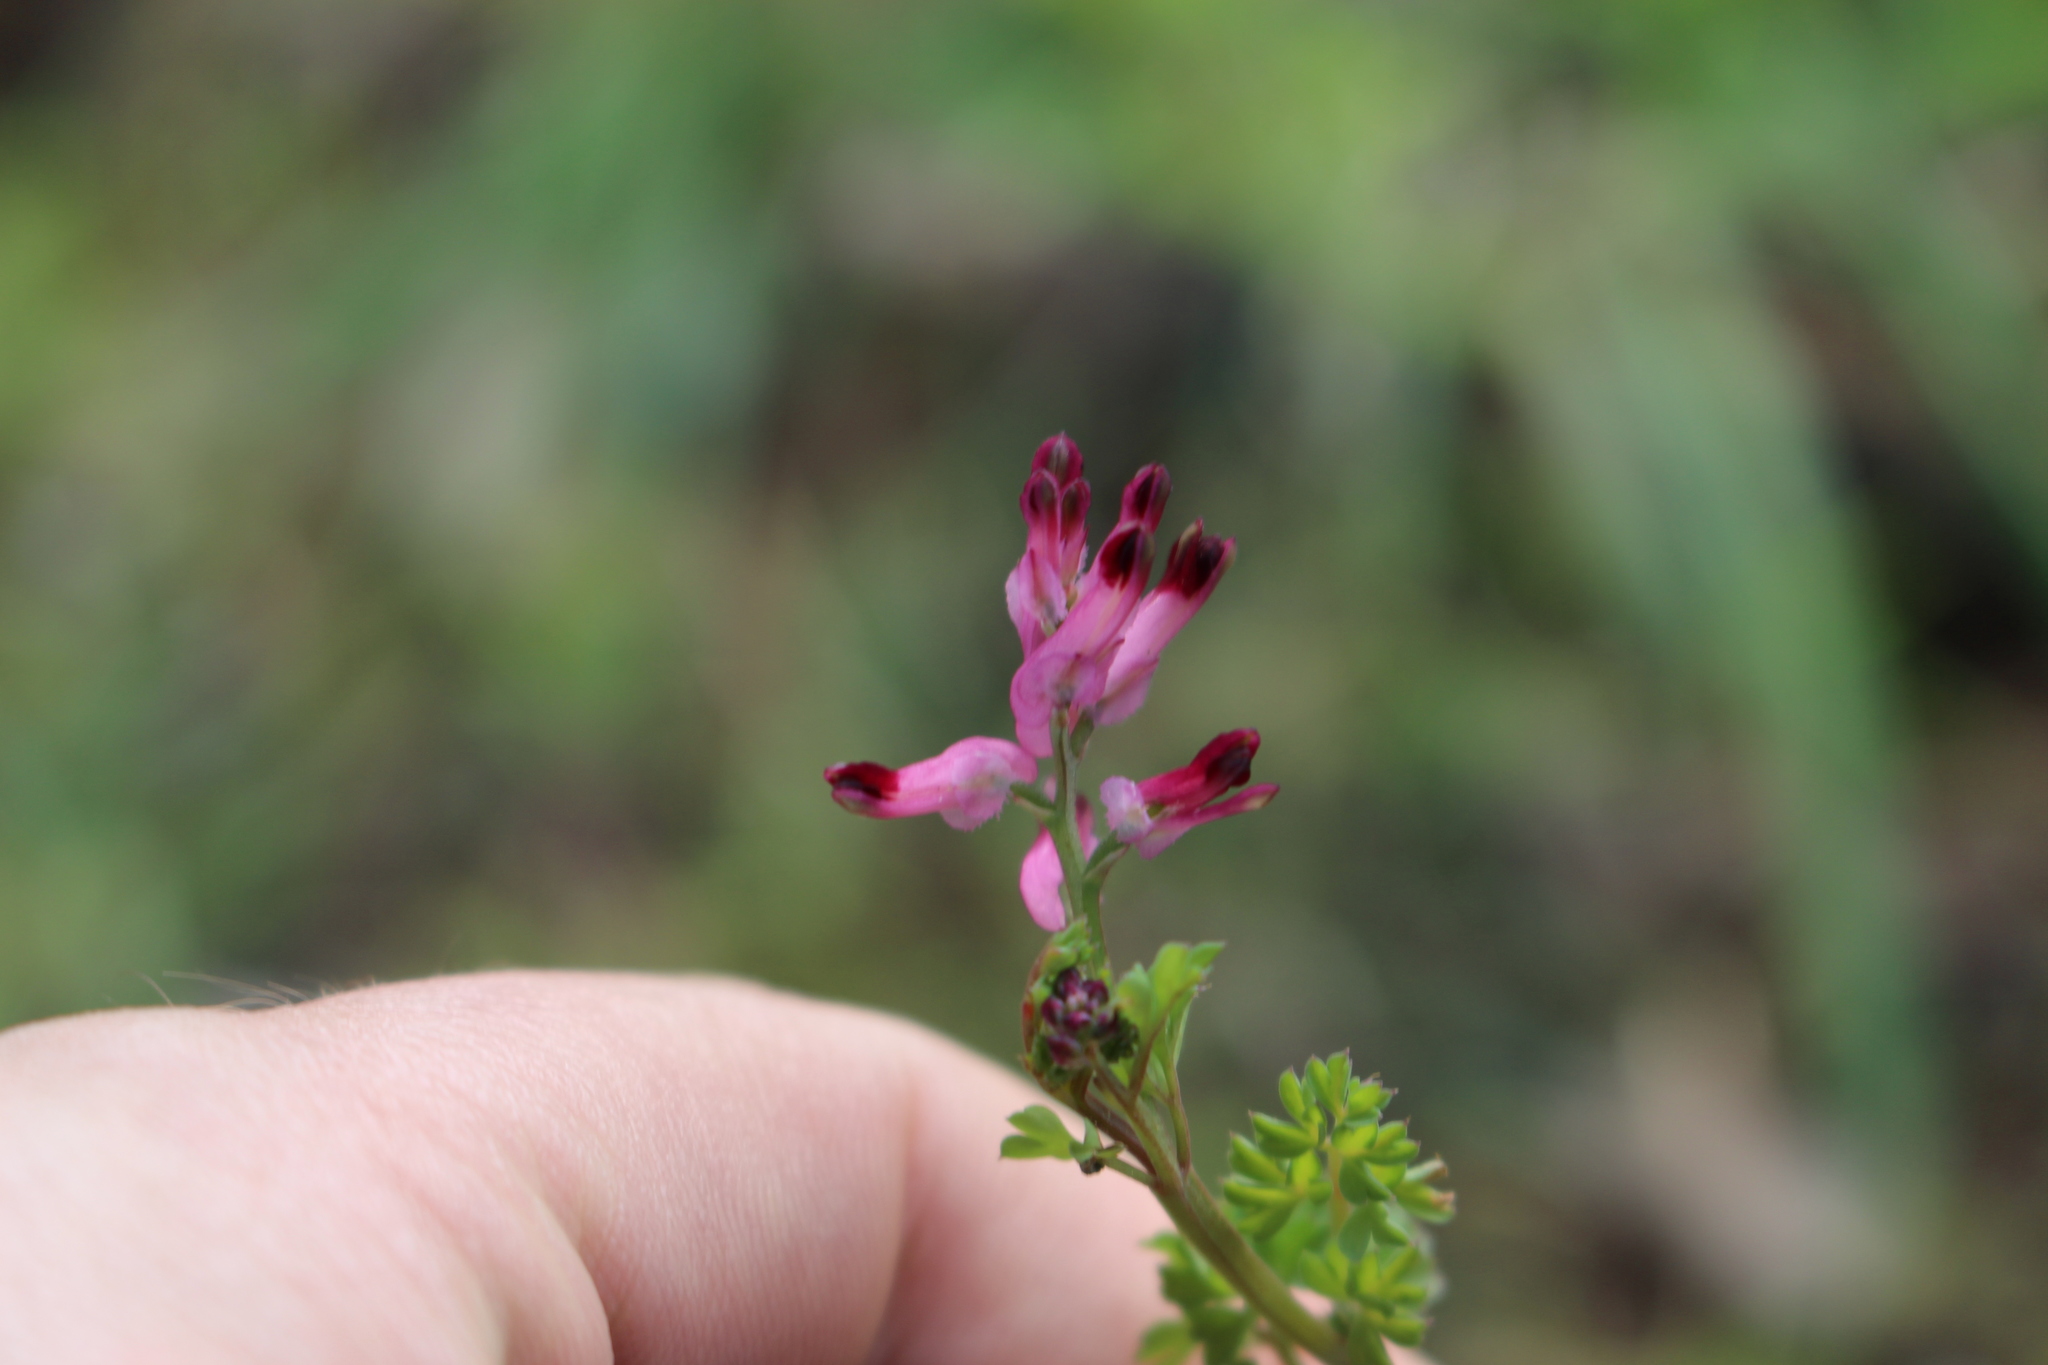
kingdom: Plantae
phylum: Tracheophyta
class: Magnoliopsida
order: Ranunculales
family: Papaveraceae
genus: Fumaria
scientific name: Fumaria muralis
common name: Common ramping-fumitory
